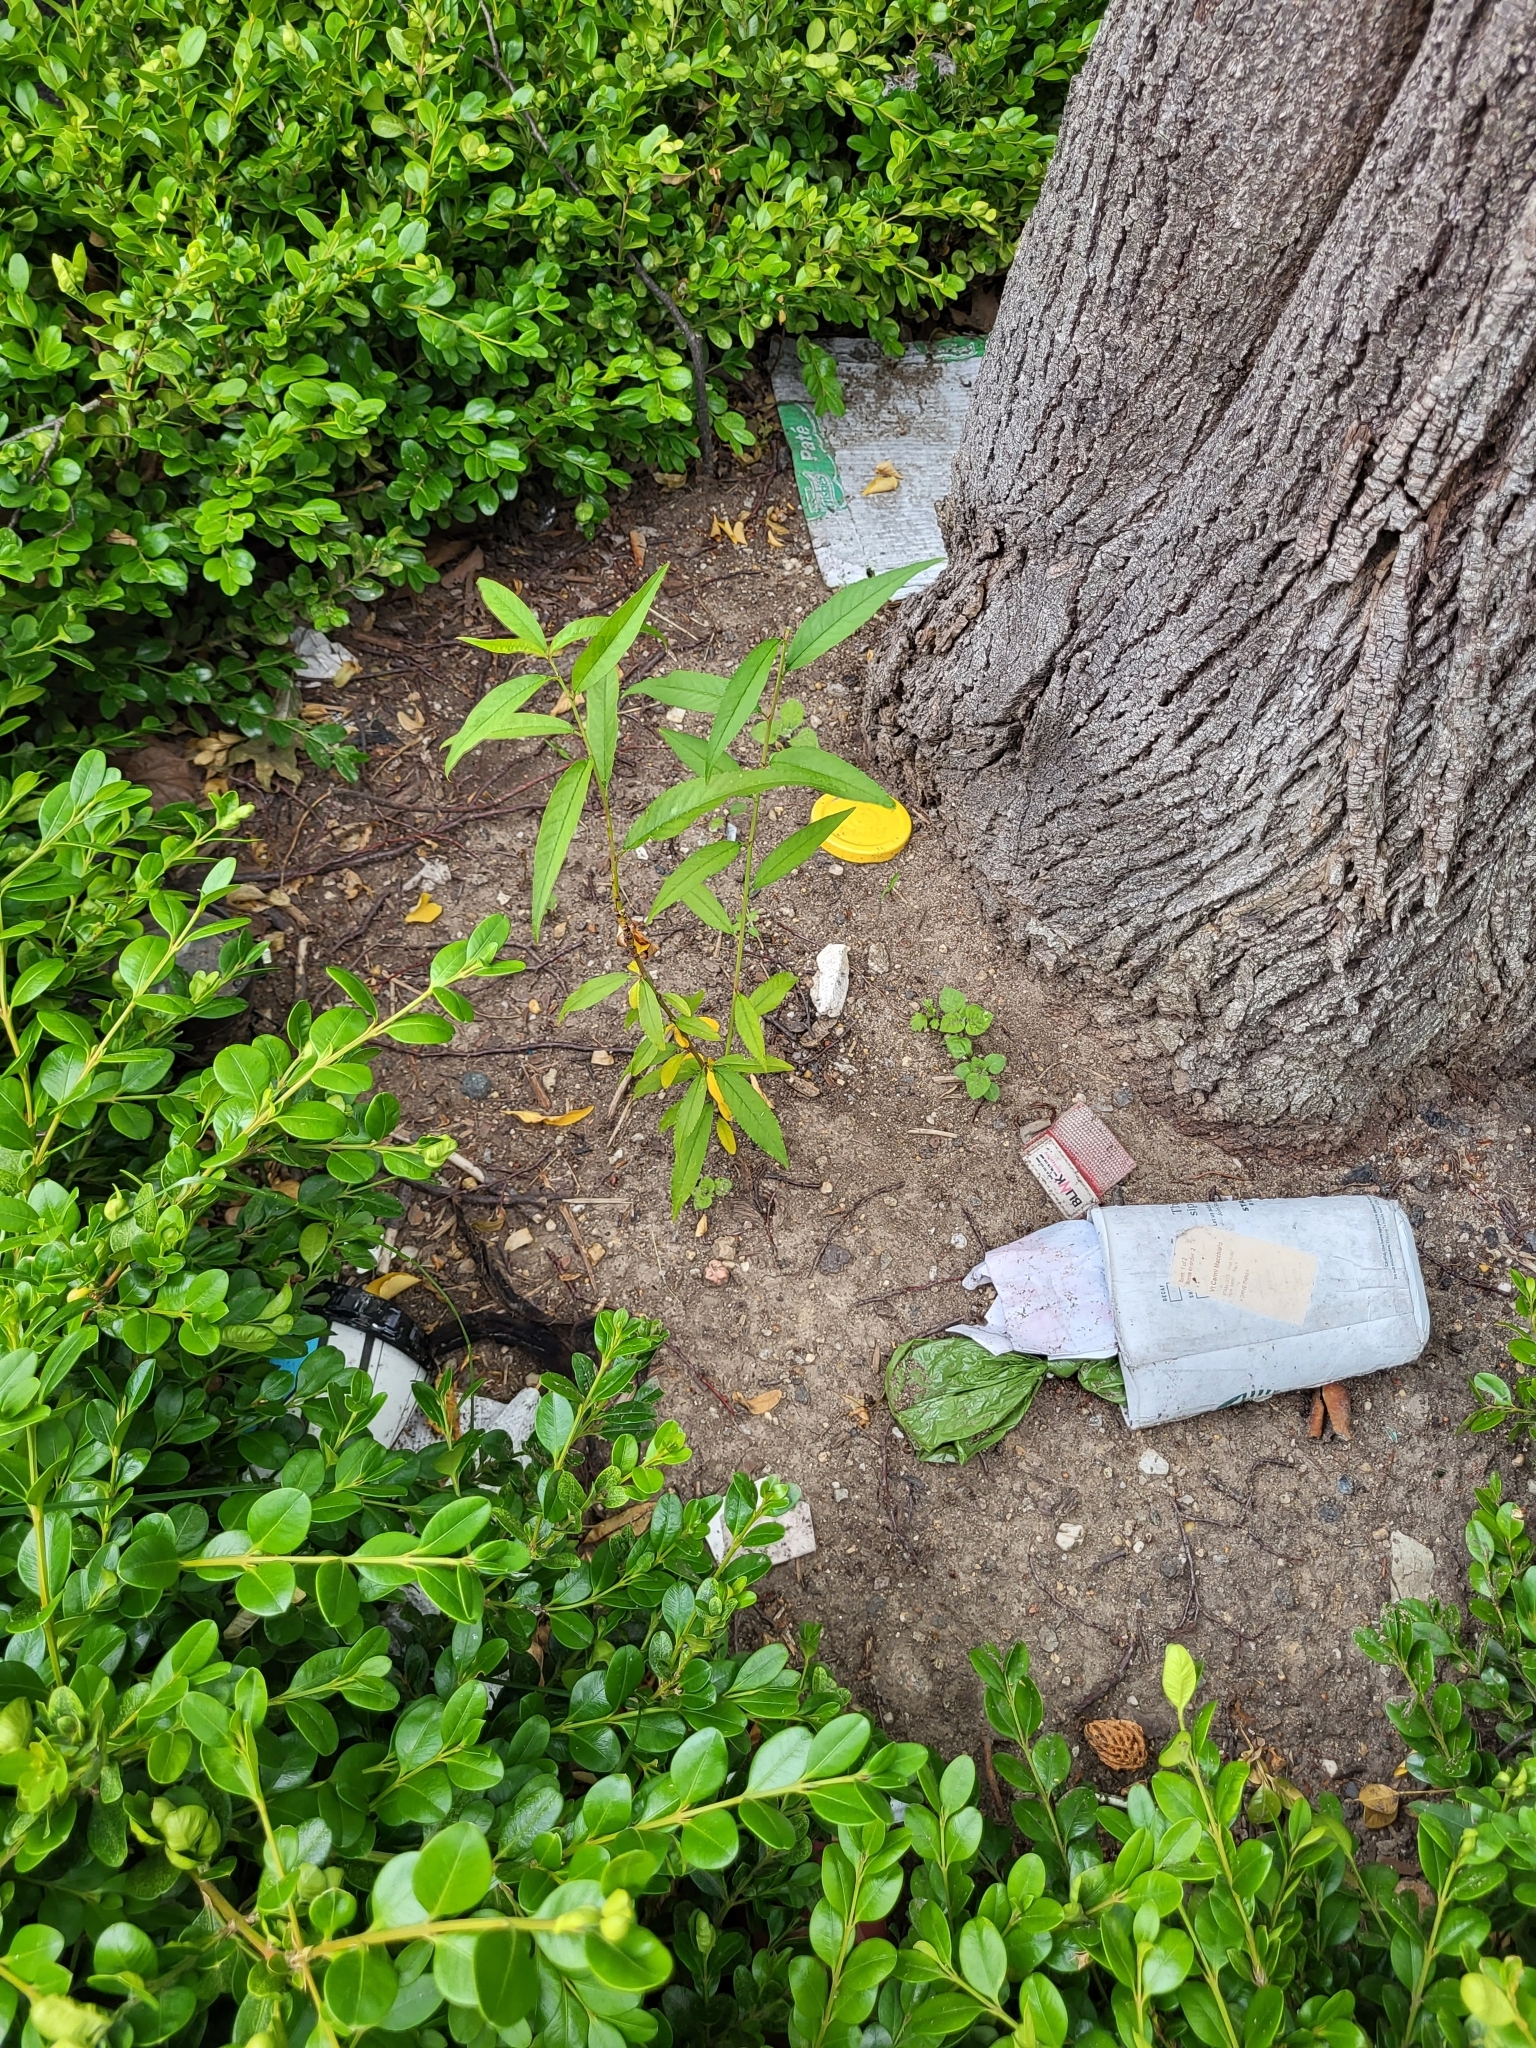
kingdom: Plantae
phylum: Tracheophyta
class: Magnoliopsida
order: Rosales
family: Rosaceae
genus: Prunus
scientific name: Prunus persica
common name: Peach
